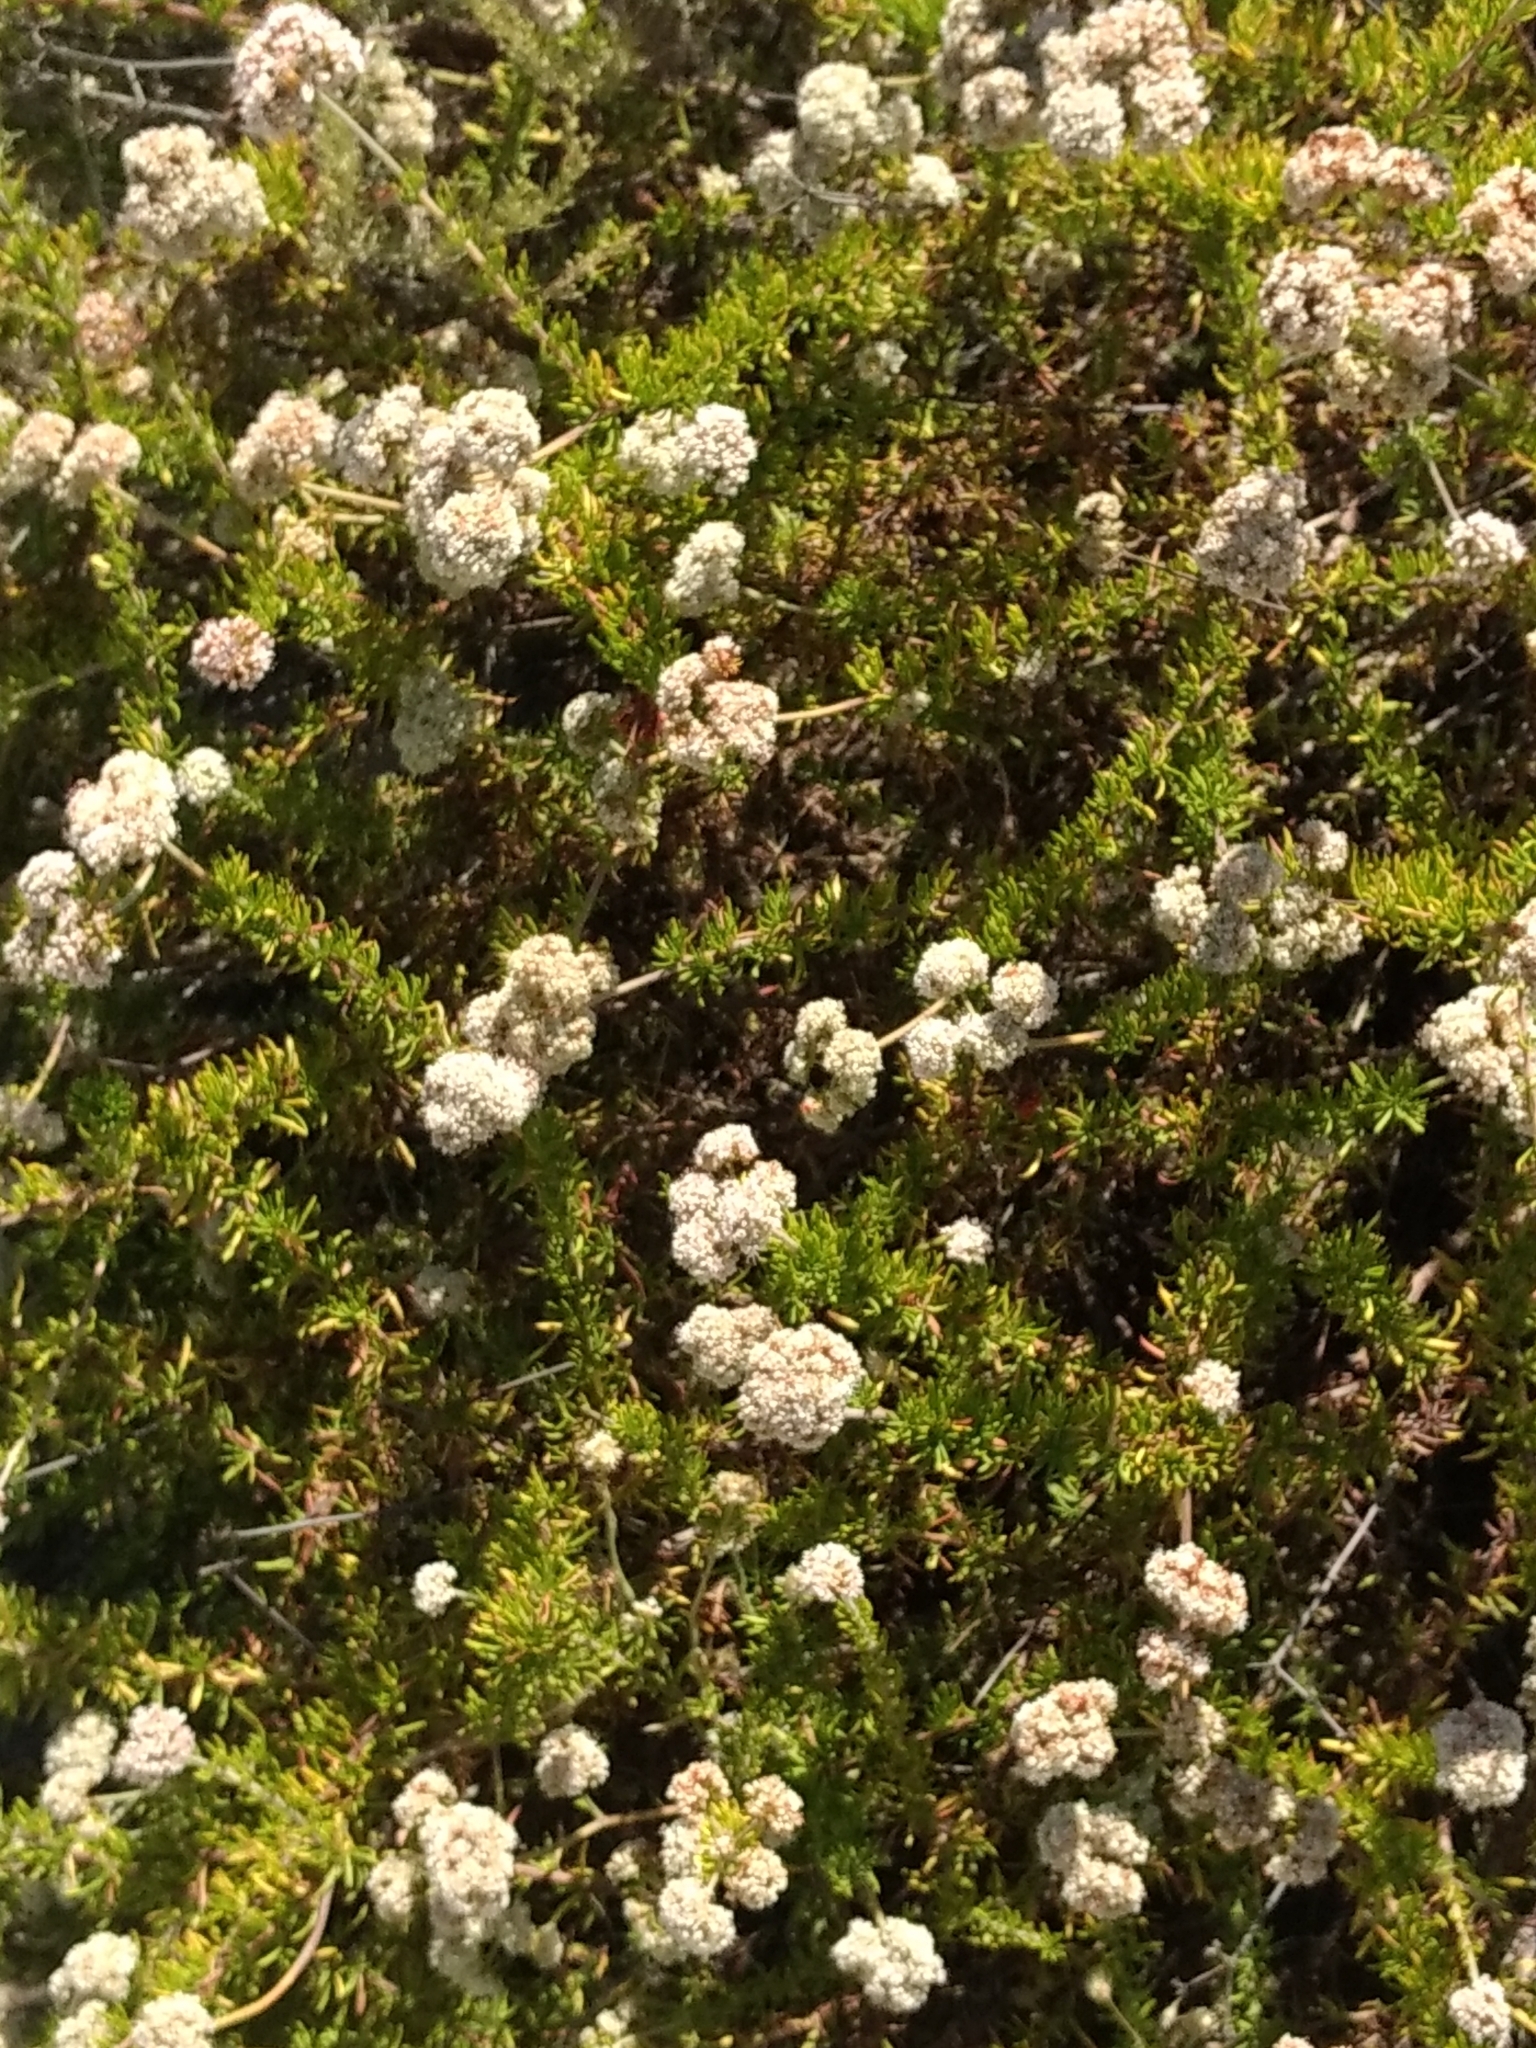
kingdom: Plantae
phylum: Tracheophyta
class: Magnoliopsida
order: Caryophyllales
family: Polygonaceae
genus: Eriogonum
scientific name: Eriogonum fasciculatum
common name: California wild buckwheat
